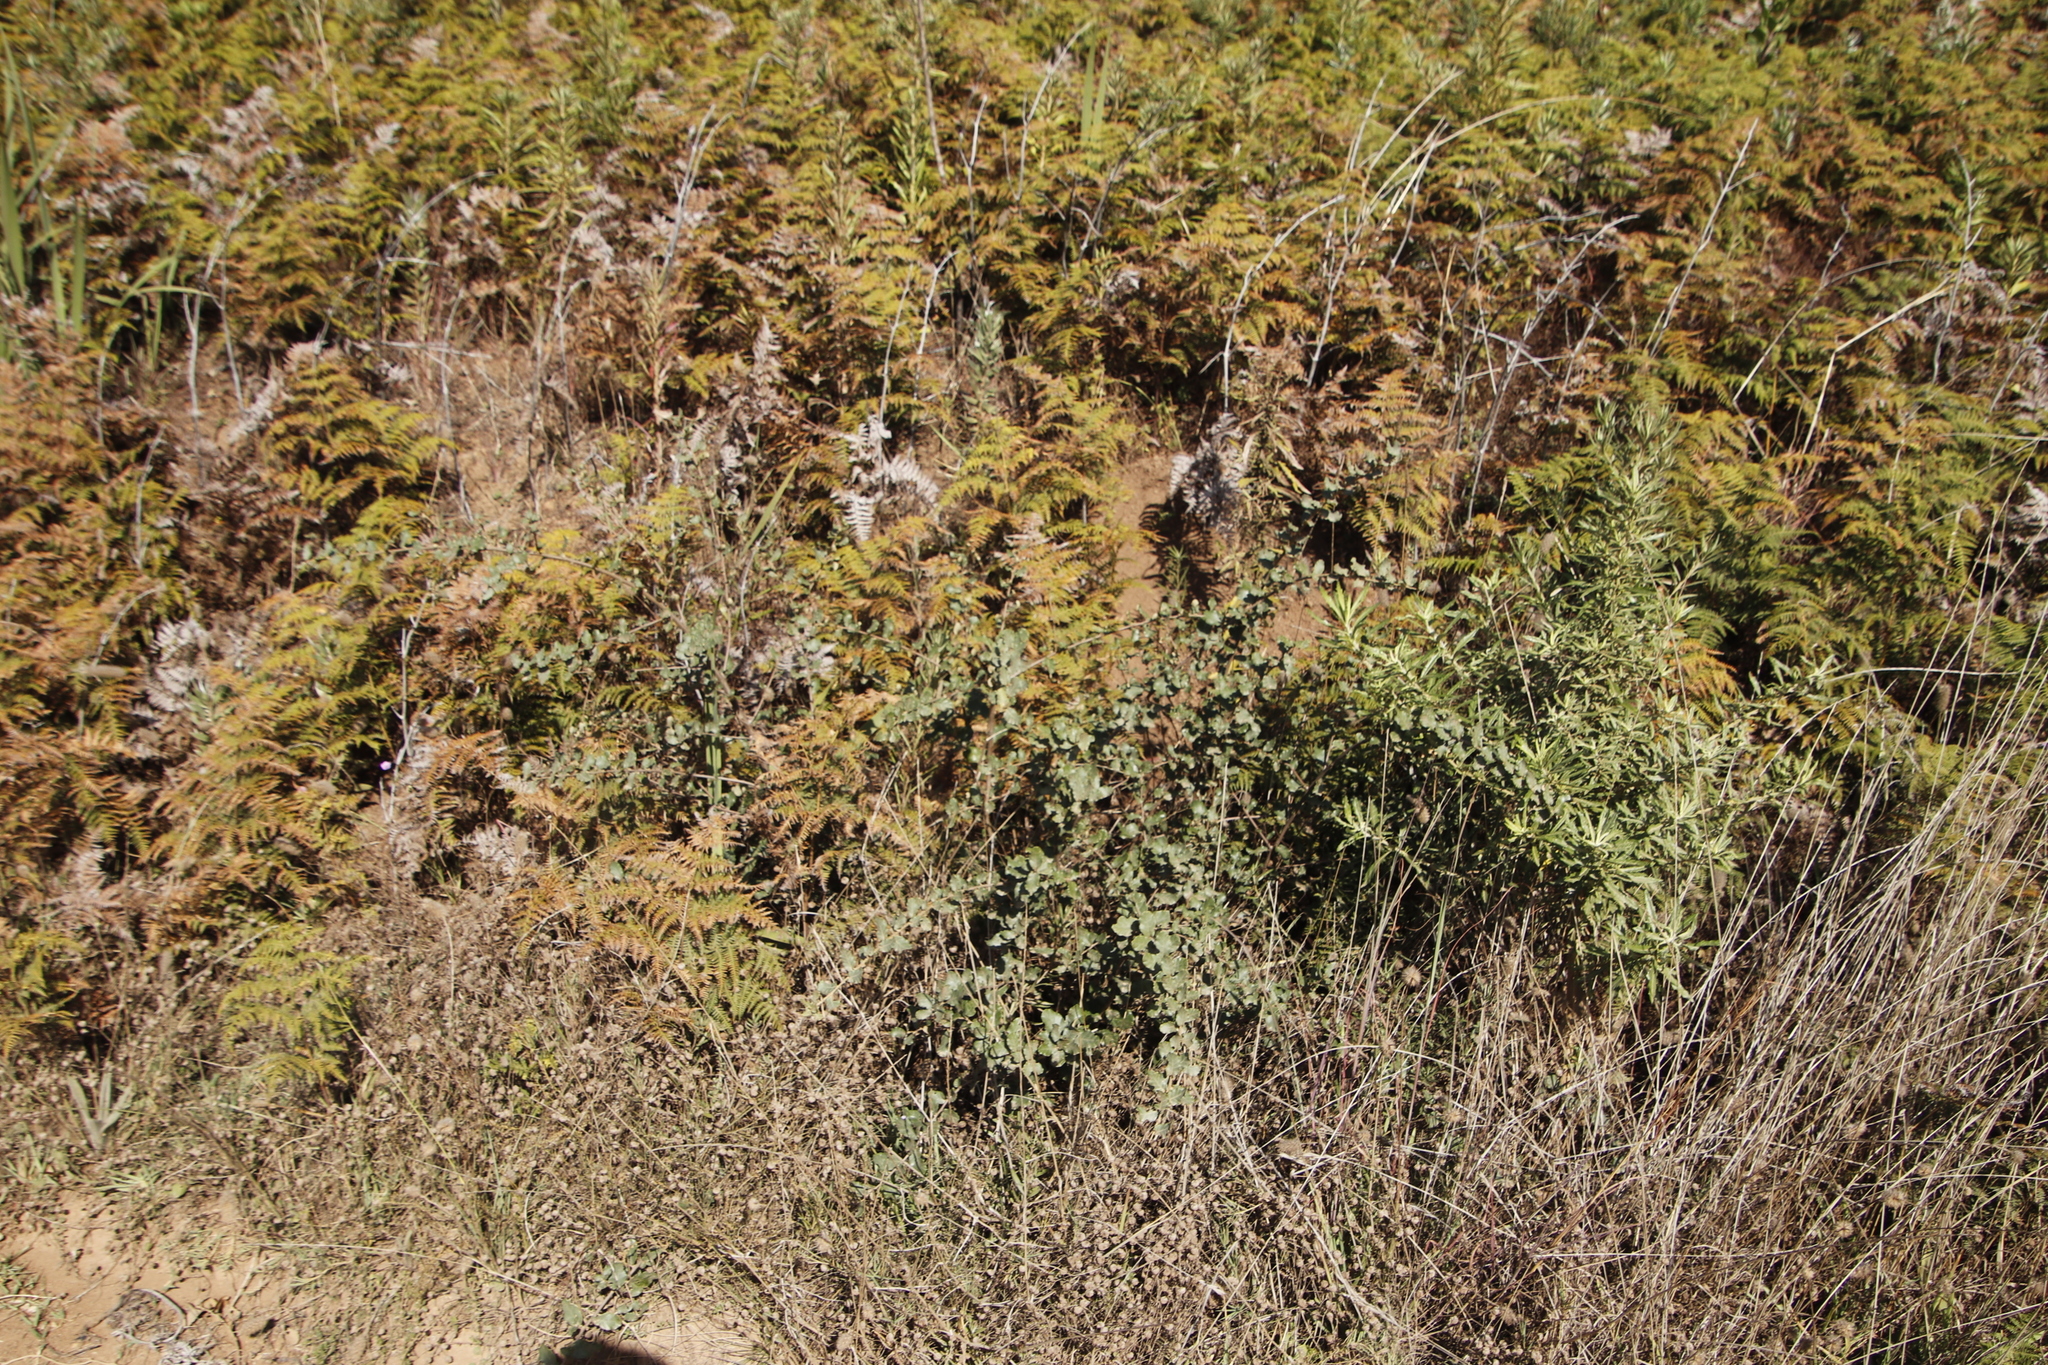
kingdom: Plantae
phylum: Tracheophyta
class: Magnoliopsida
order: Fagales
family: Fagaceae
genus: Quercus
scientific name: Quercus suber
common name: Cork oak
